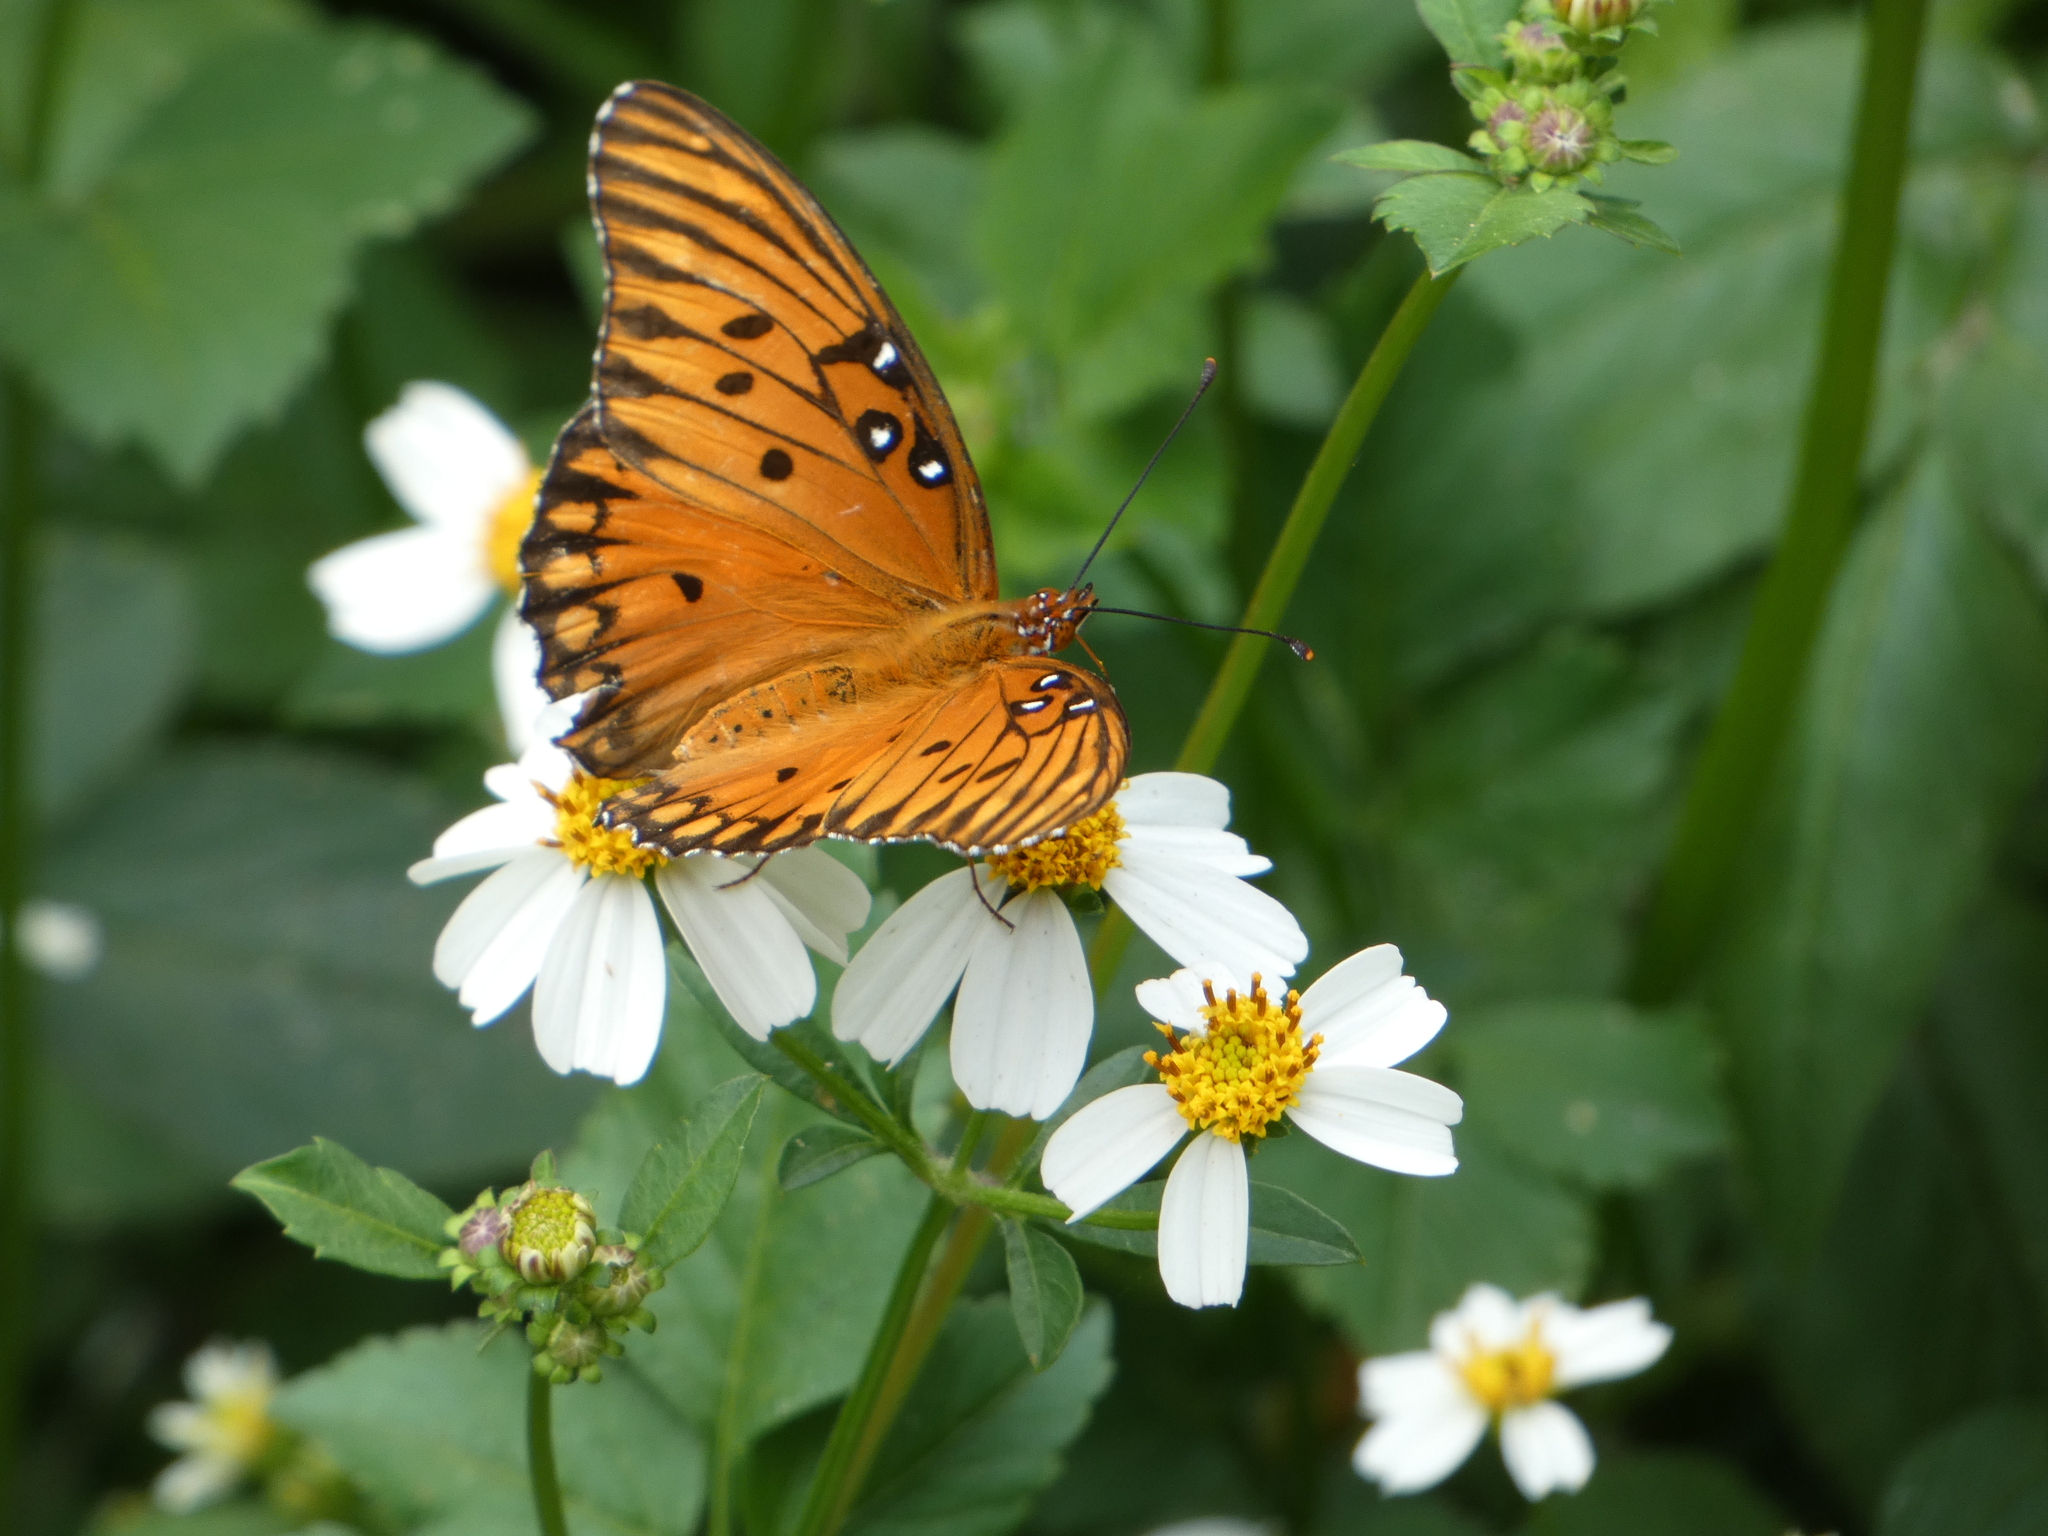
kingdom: Animalia
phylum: Arthropoda
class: Insecta
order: Lepidoptera
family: Nymphalidae
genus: Dione
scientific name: Dione vanillae
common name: Gulf fritillary
